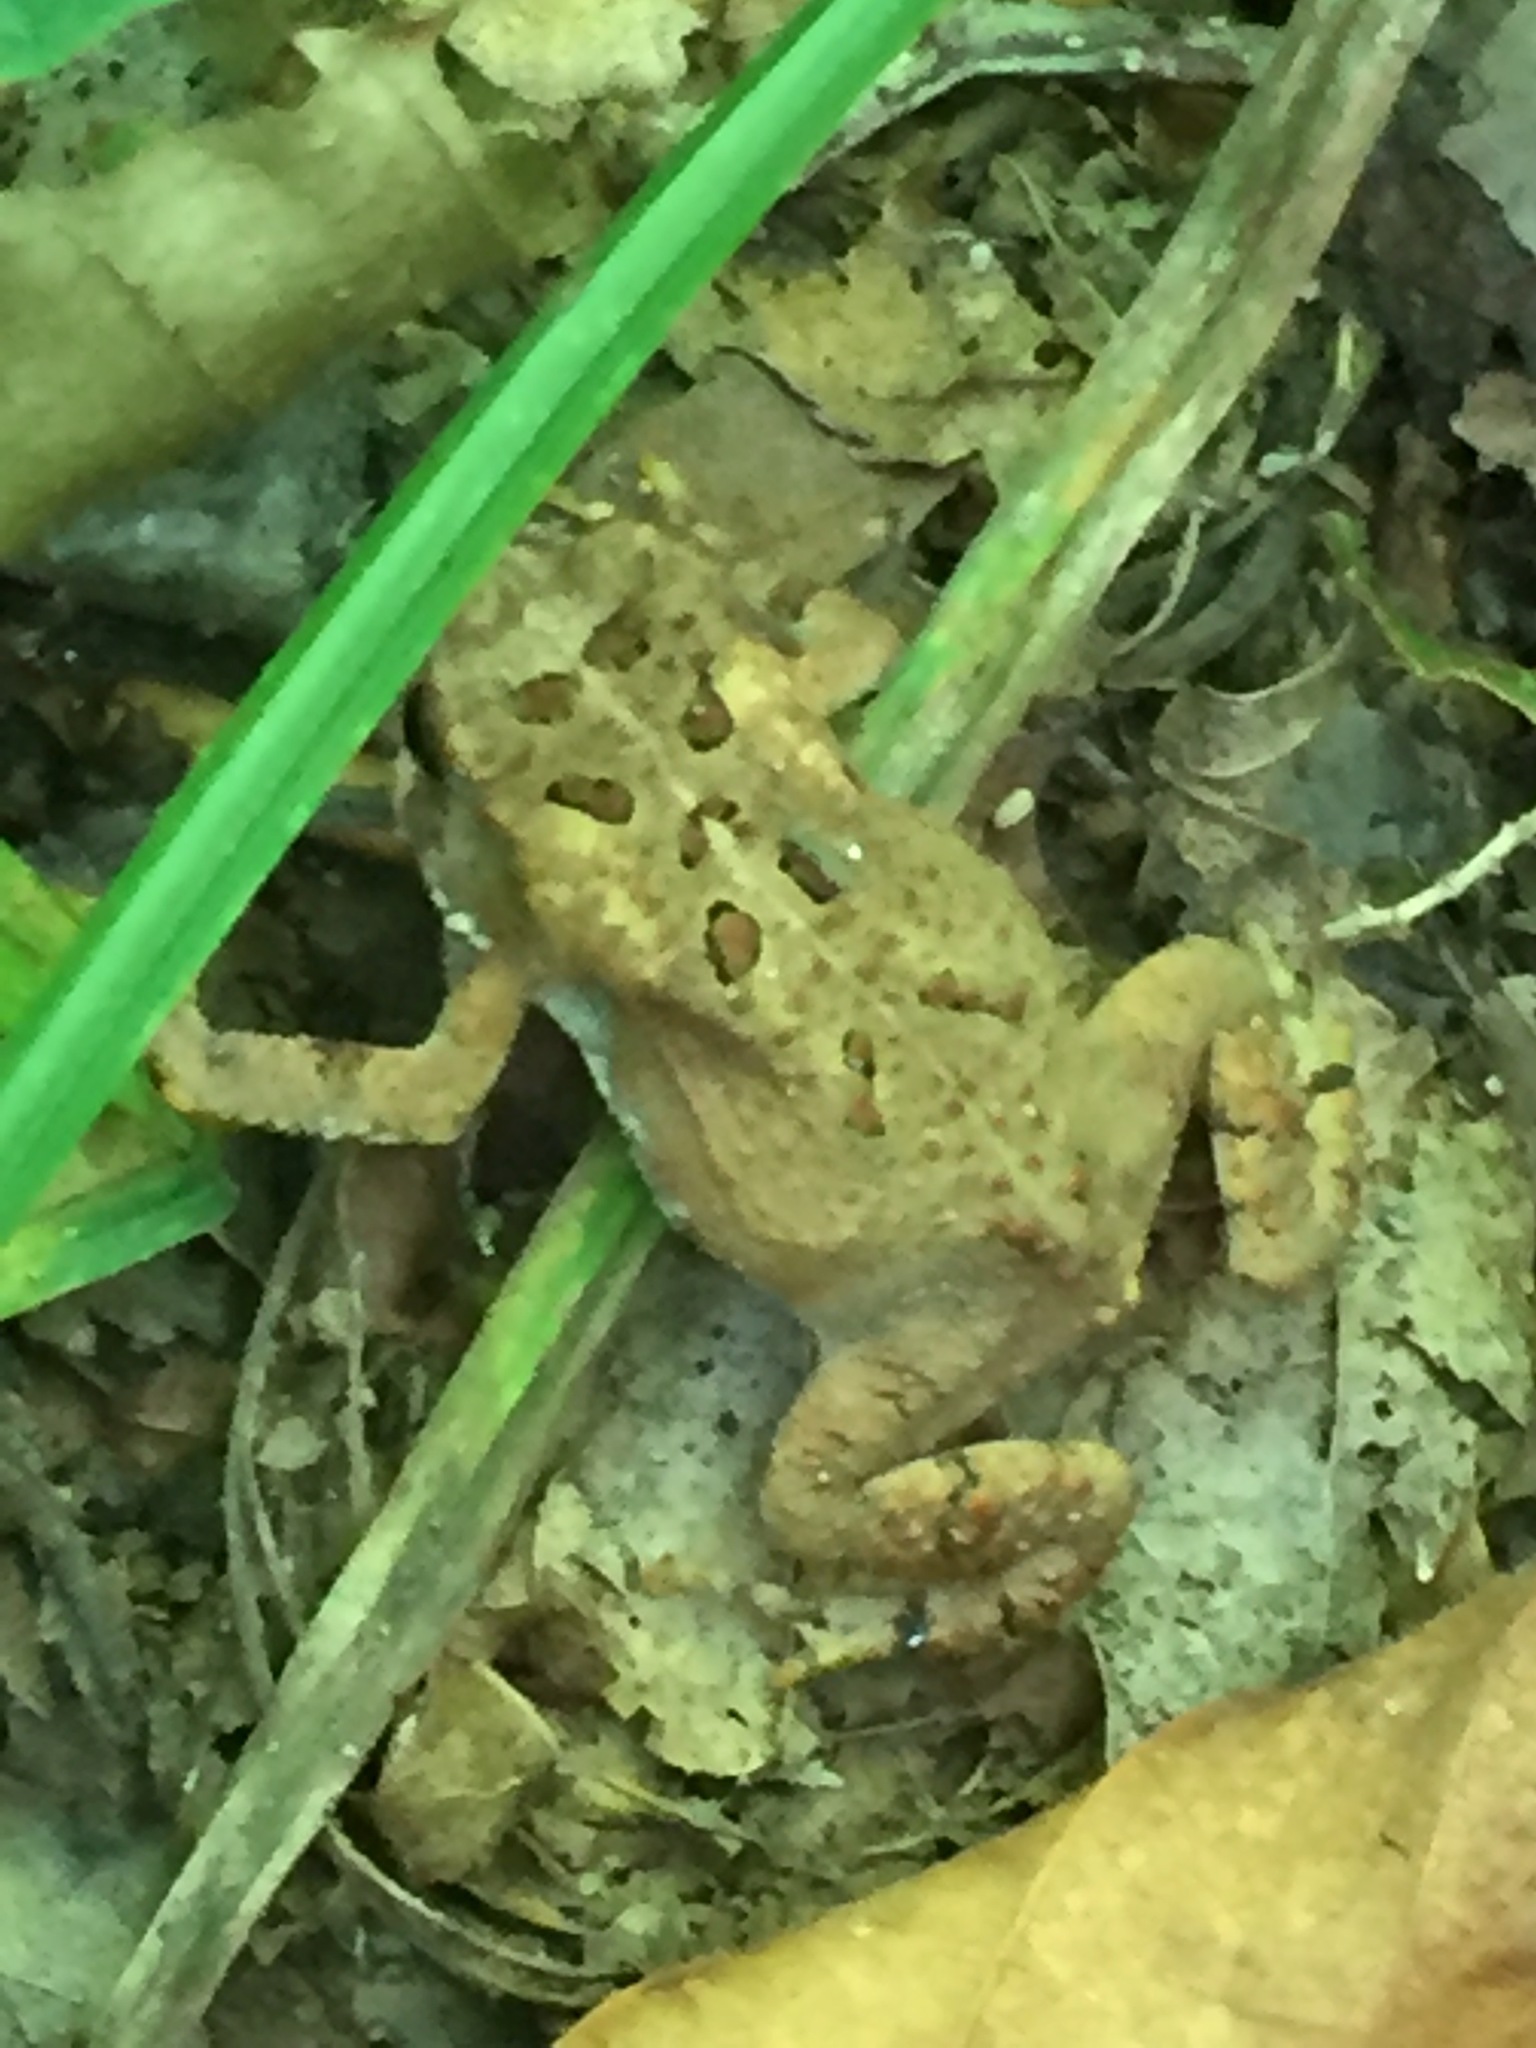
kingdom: Animalia
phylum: Chordata
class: Amphibia
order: Anura
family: Bufonidae
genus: Anaxyrus
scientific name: Anaxyrus americanus
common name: American toad
